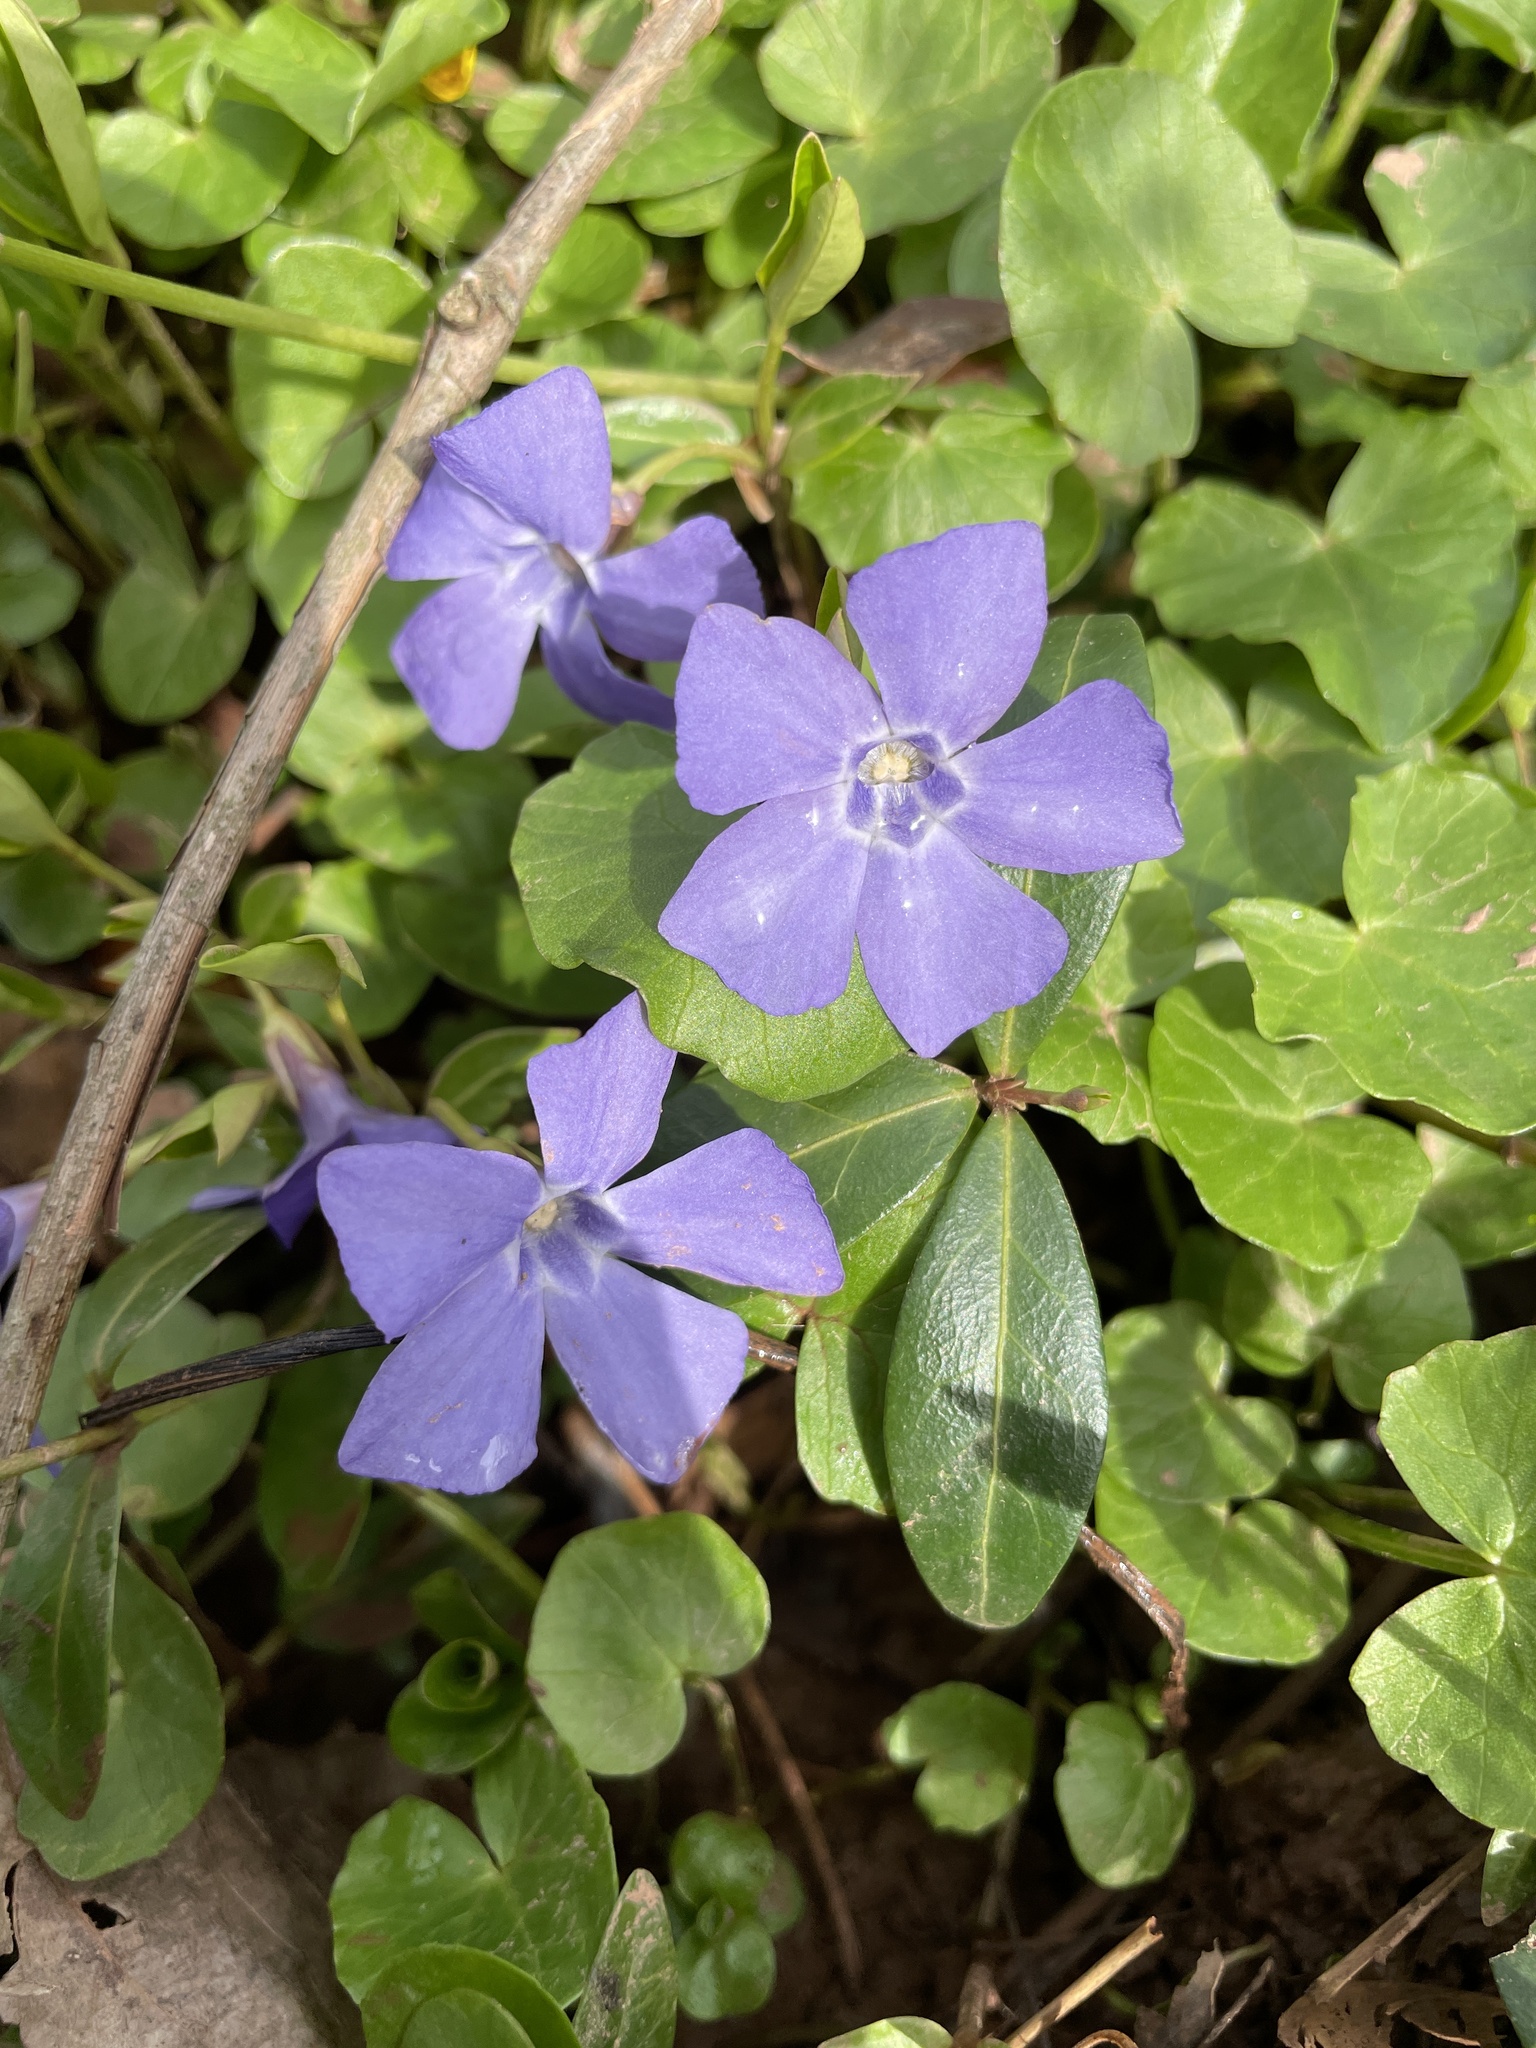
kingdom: Plantae
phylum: Tracheophyta
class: Magnoliopsida
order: Gentianales
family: Apocynaceae
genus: Vinca
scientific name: Vinca minor
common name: Lesser periwinkle
